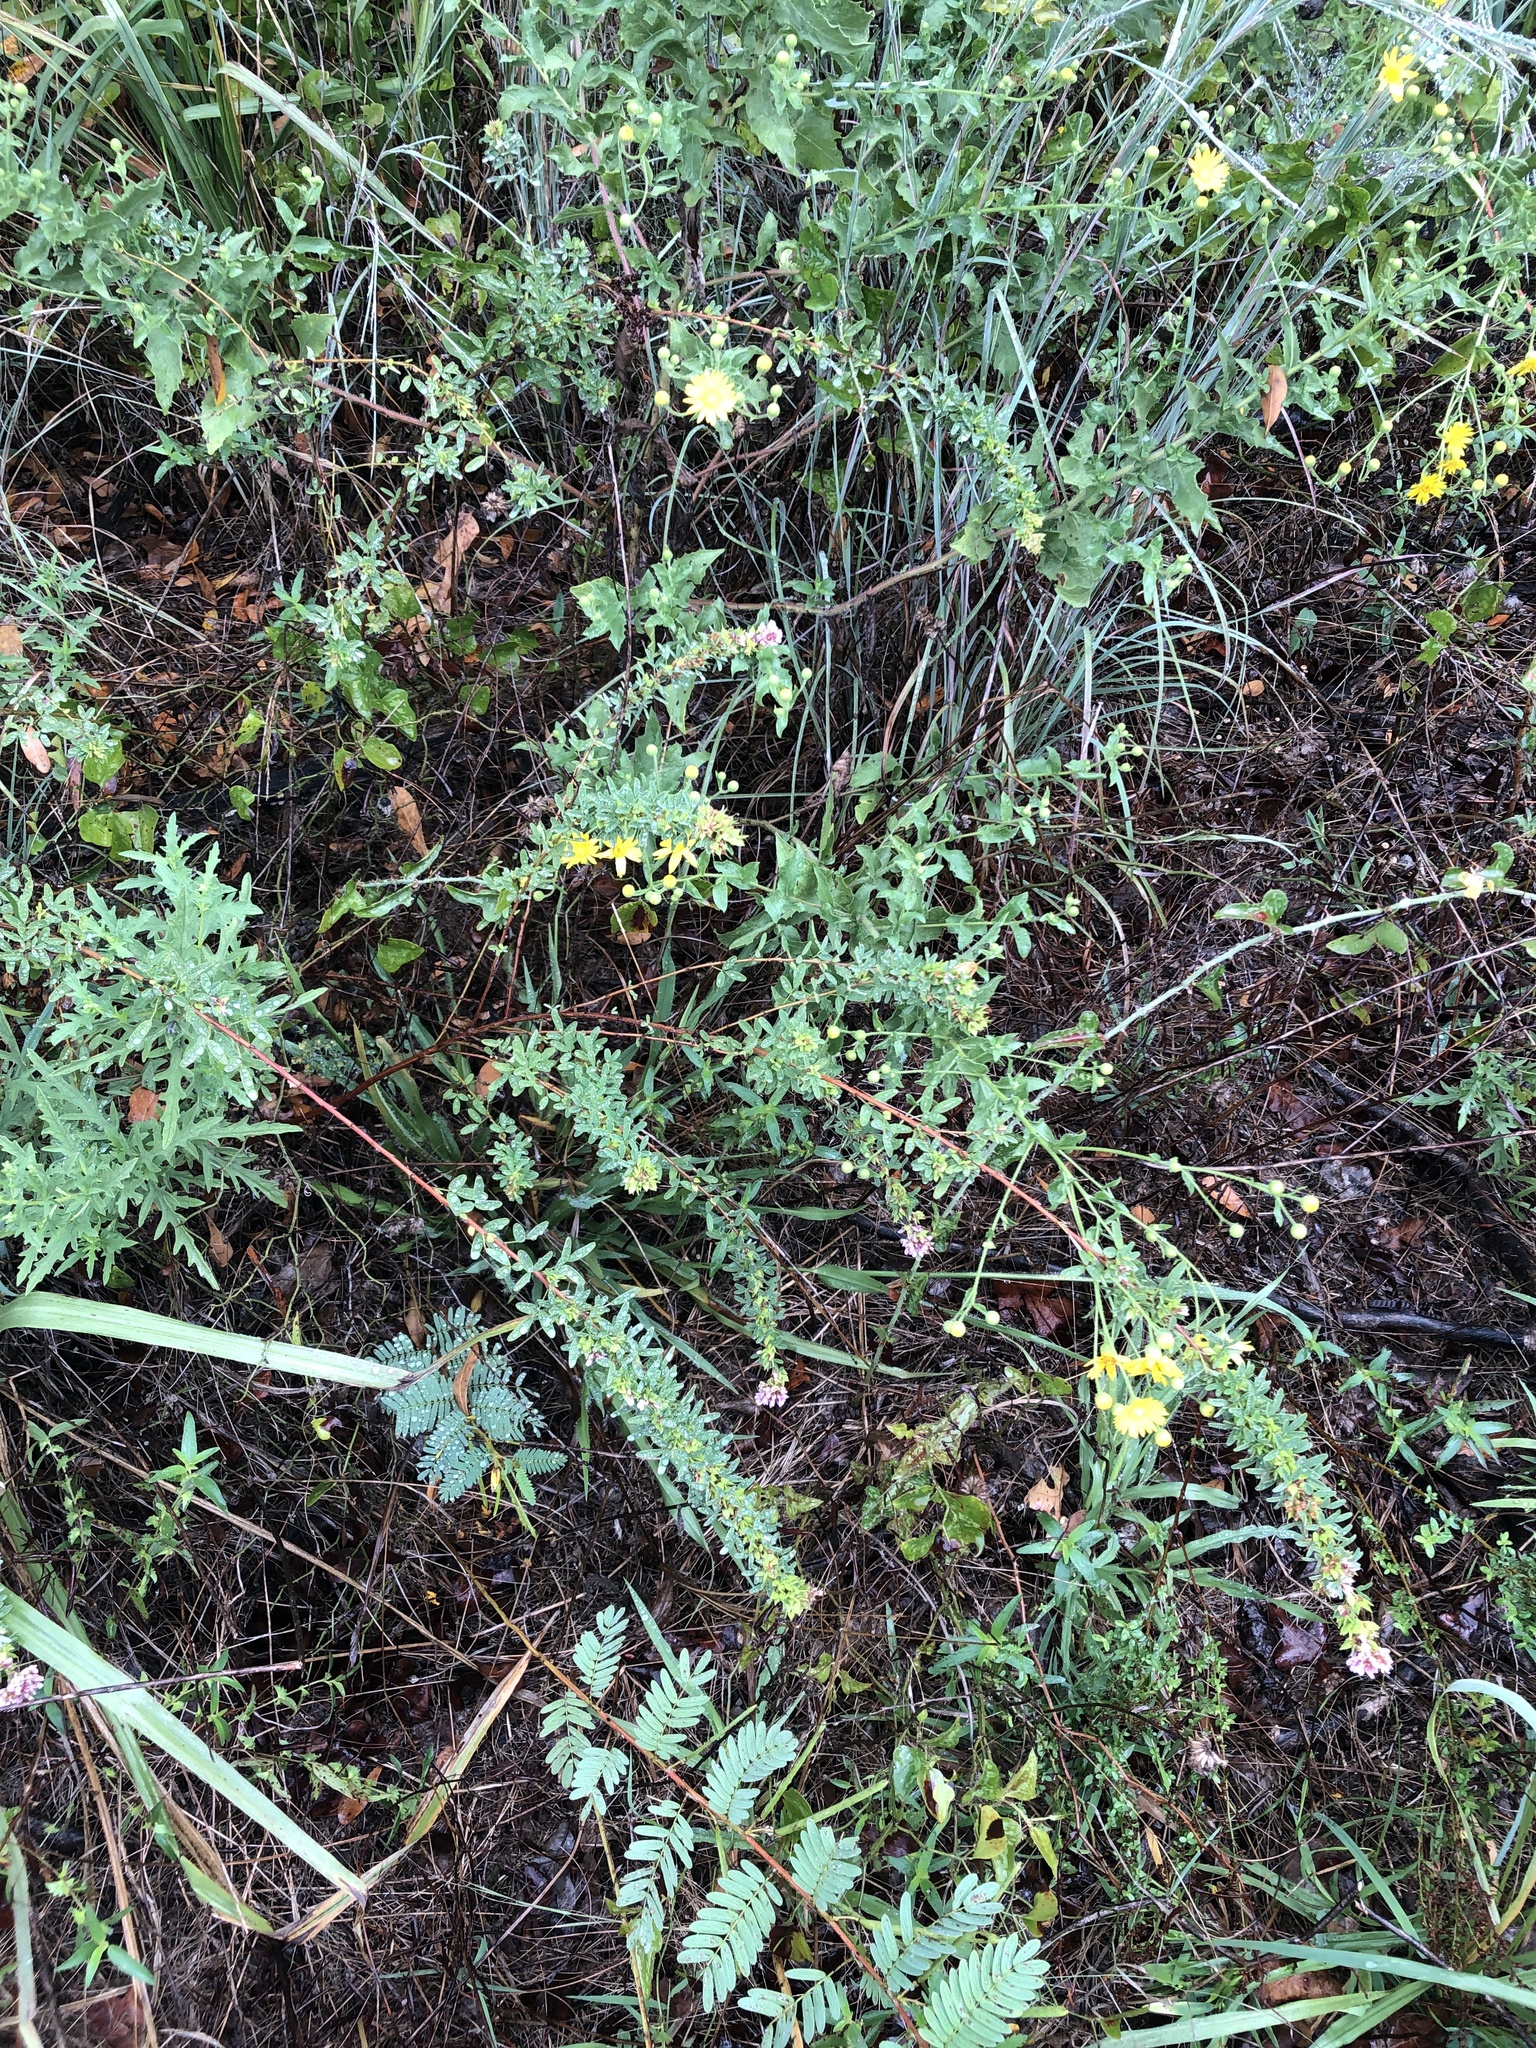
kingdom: Plantae
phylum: Tracheophyta
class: Magnoliopsida
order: Fabales
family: Fabaceae
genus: Lespedeza
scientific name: Lespedeza virginica
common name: Slender bush-clover
